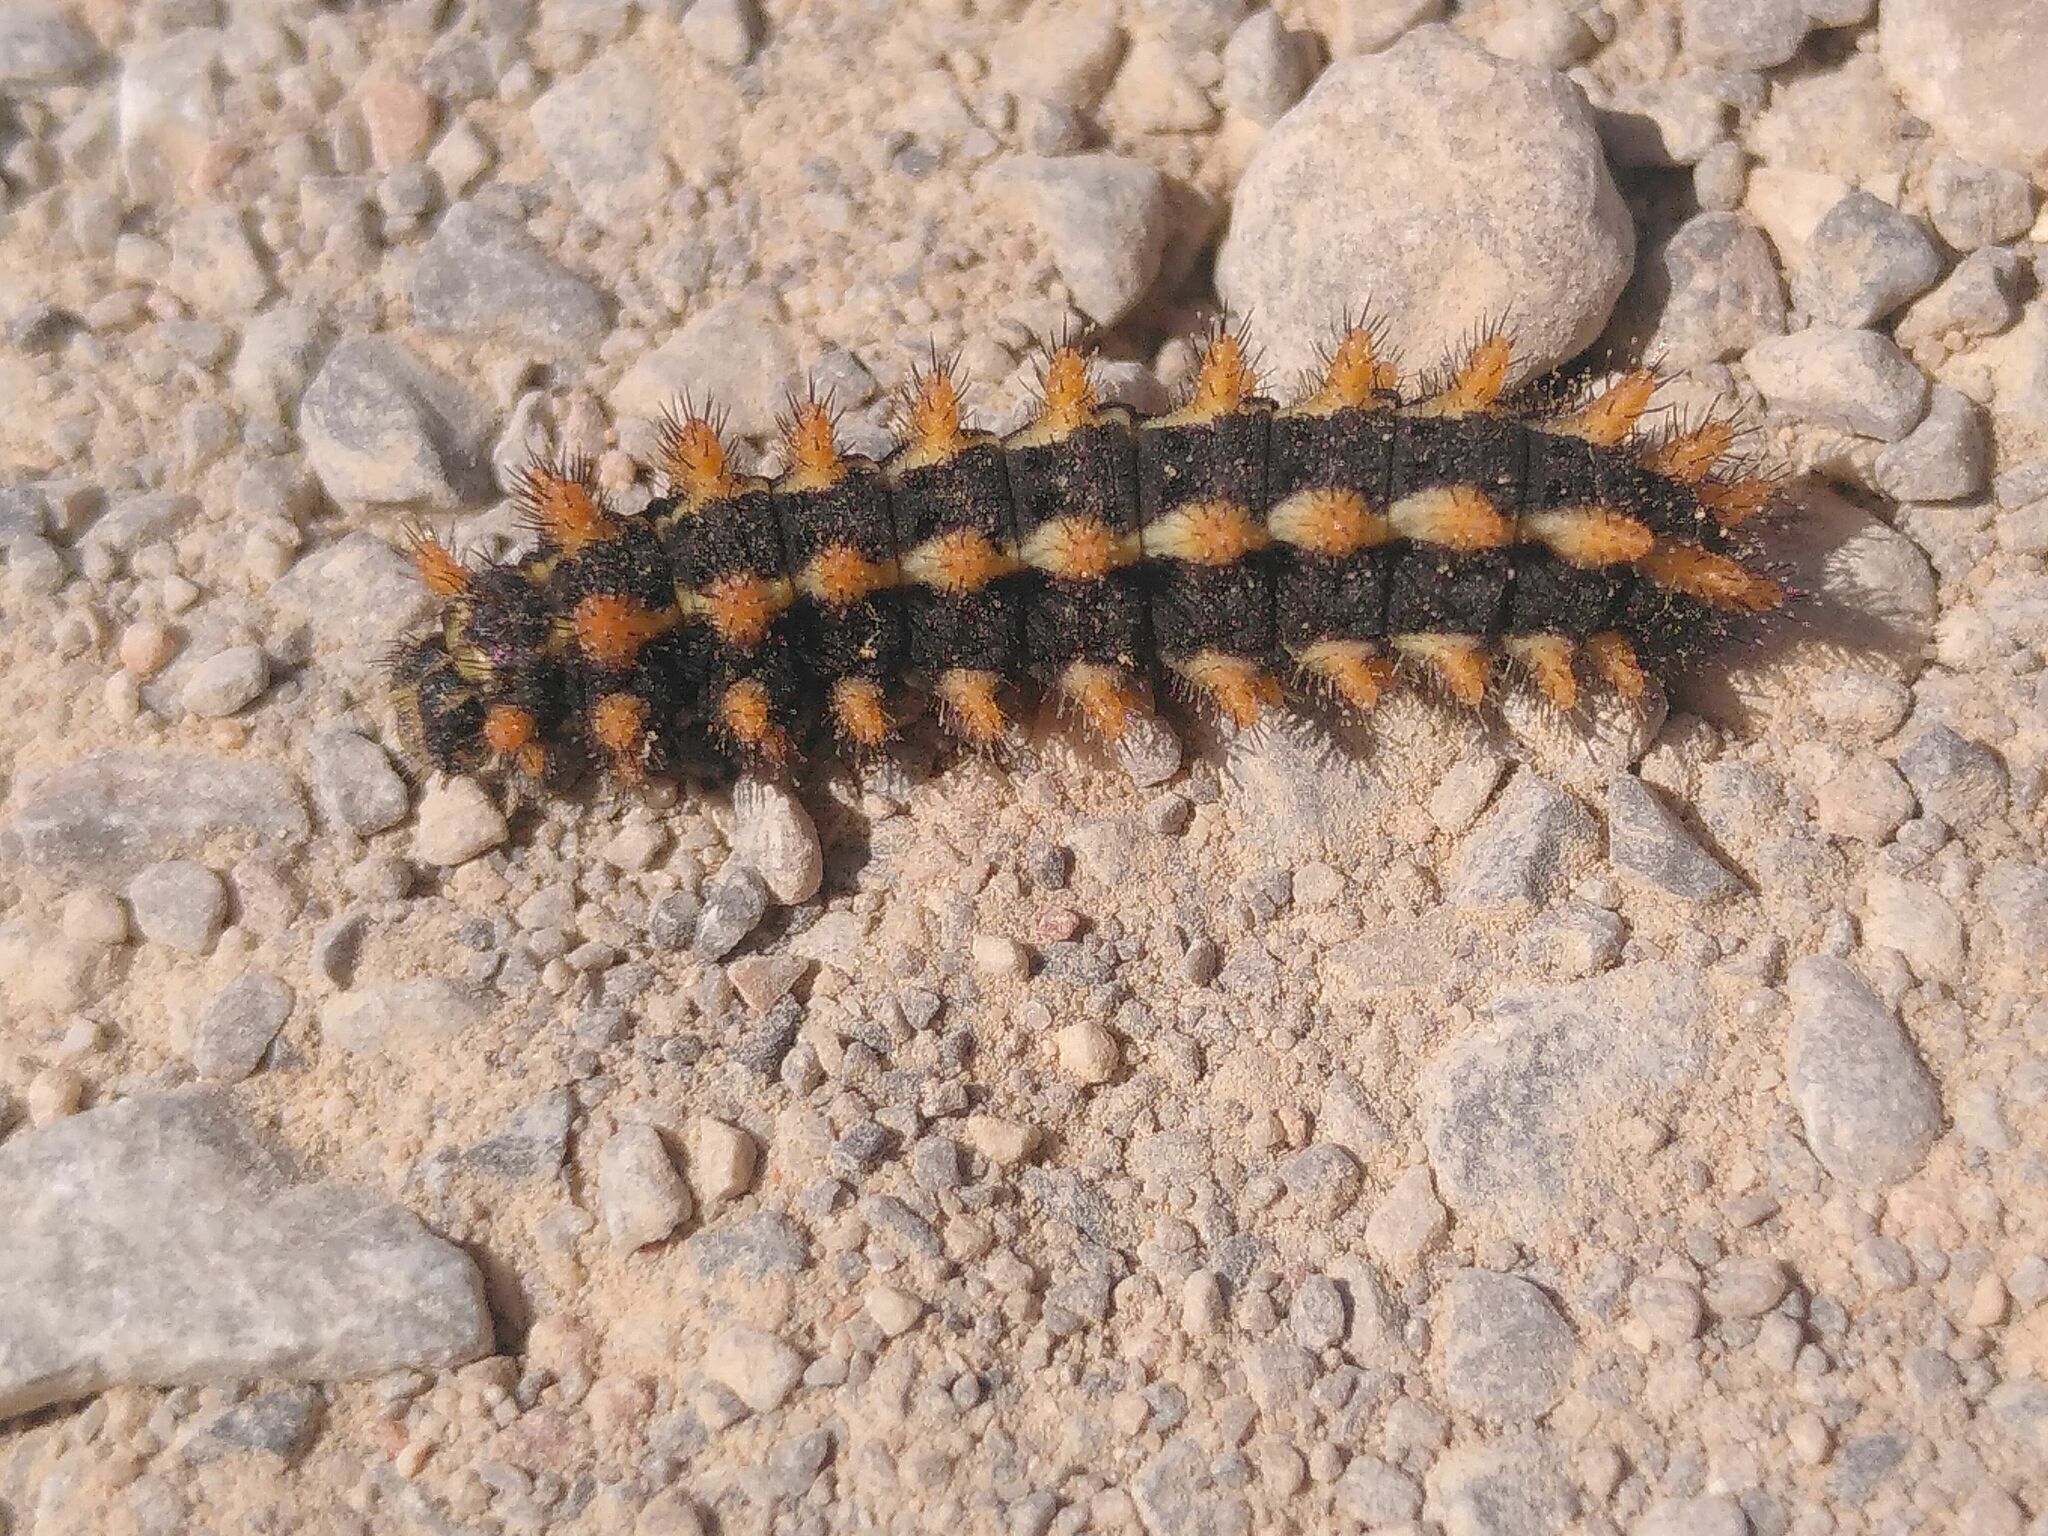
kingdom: Animalia
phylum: Arthropoda
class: Insecta
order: Lepidoptera
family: Papilionidae
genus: Zerynthia
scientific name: Zerynthia cretica
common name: Cretan festoon
